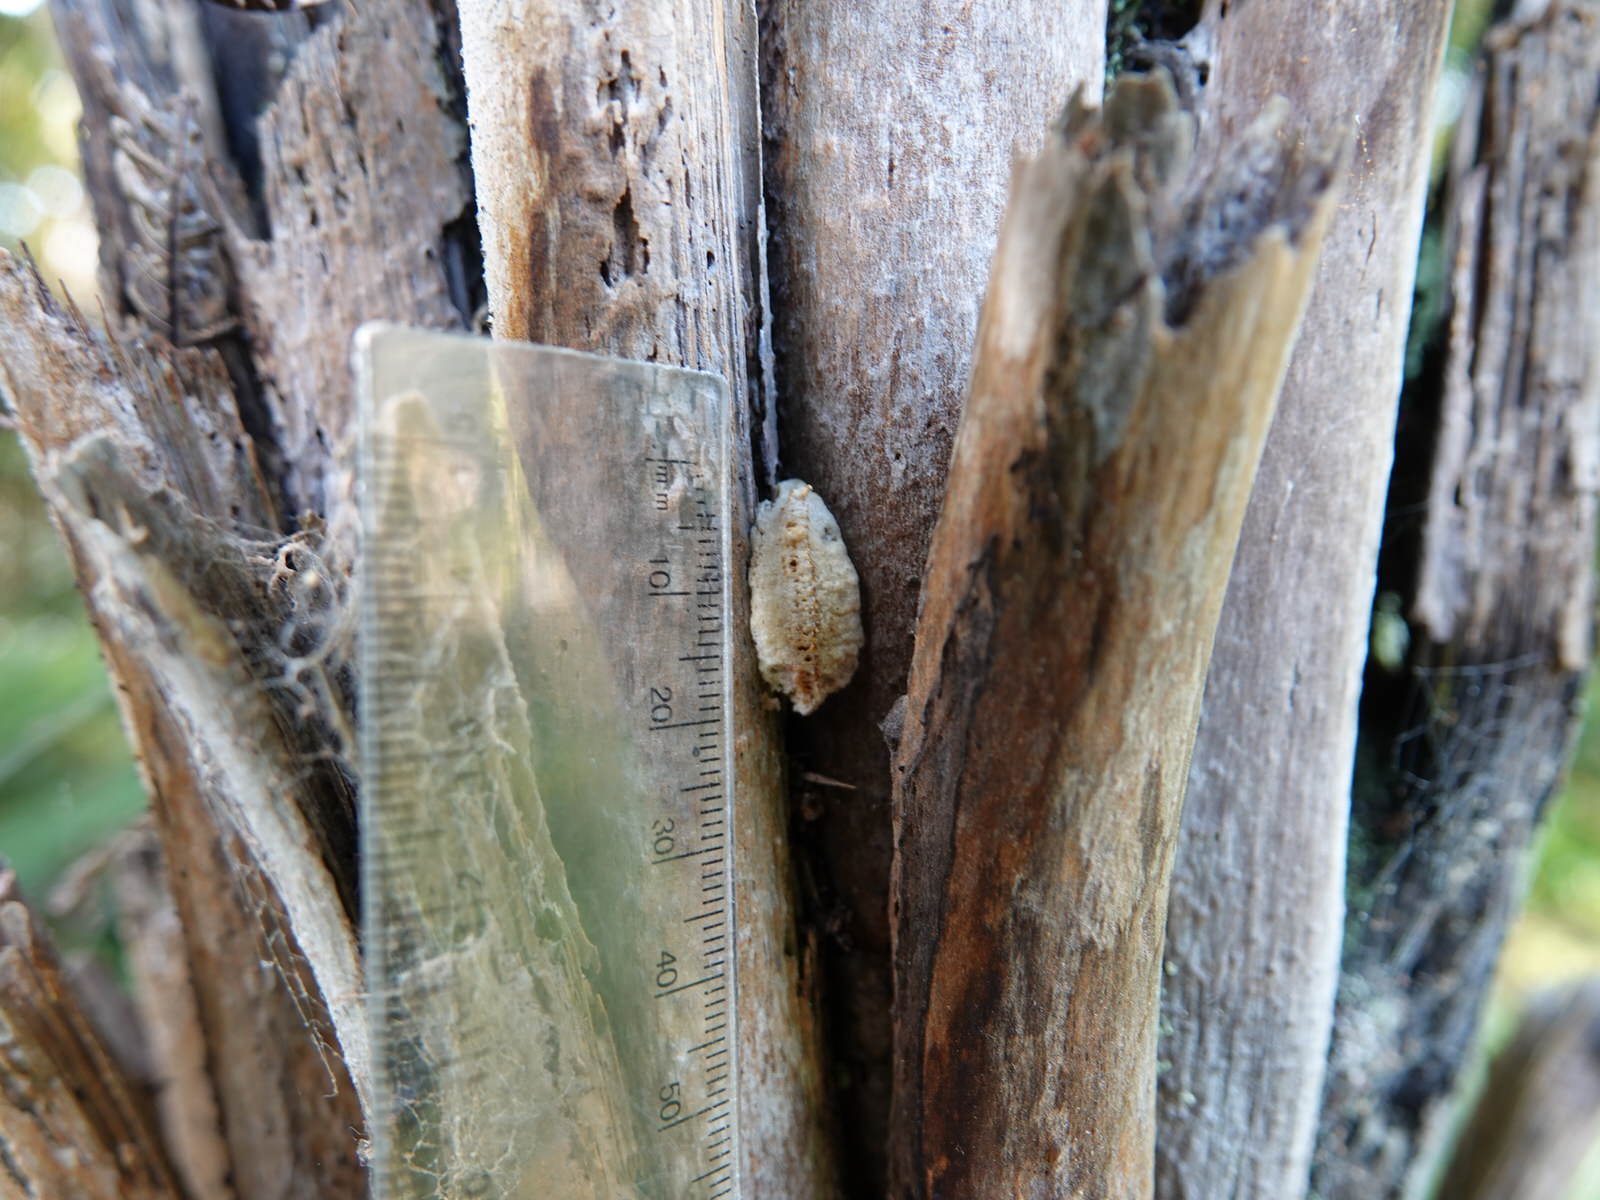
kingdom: Animalia
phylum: Arthropoda
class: Insecta
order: Mantodea
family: Miomantidae
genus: Miomantis
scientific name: Miomantis caffra
